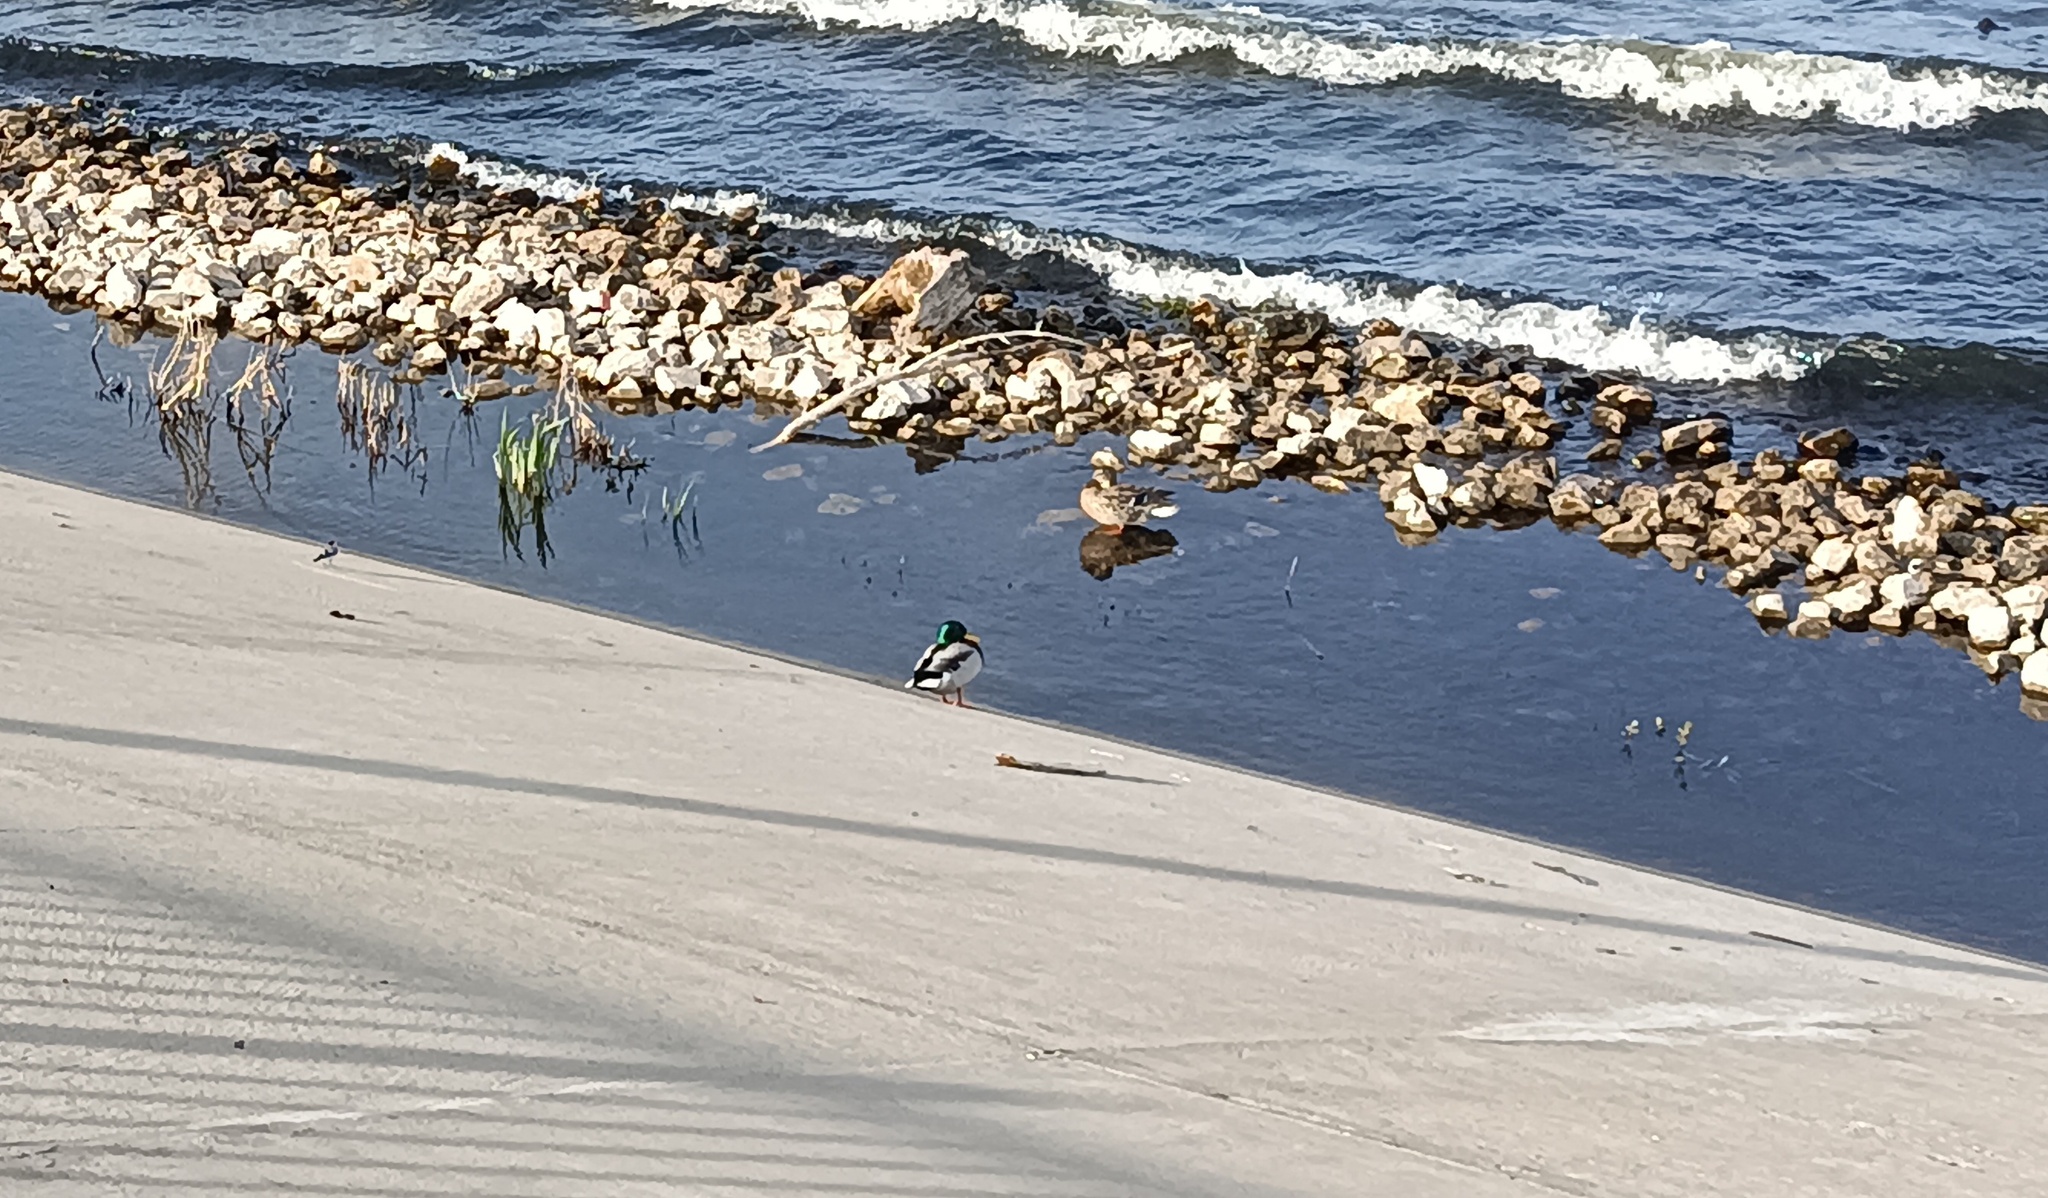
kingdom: Animalia
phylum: Chordata
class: Aves
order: Anseriformes
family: Anatidae
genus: Anas
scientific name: Anas platyrhynchos
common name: Mallard
